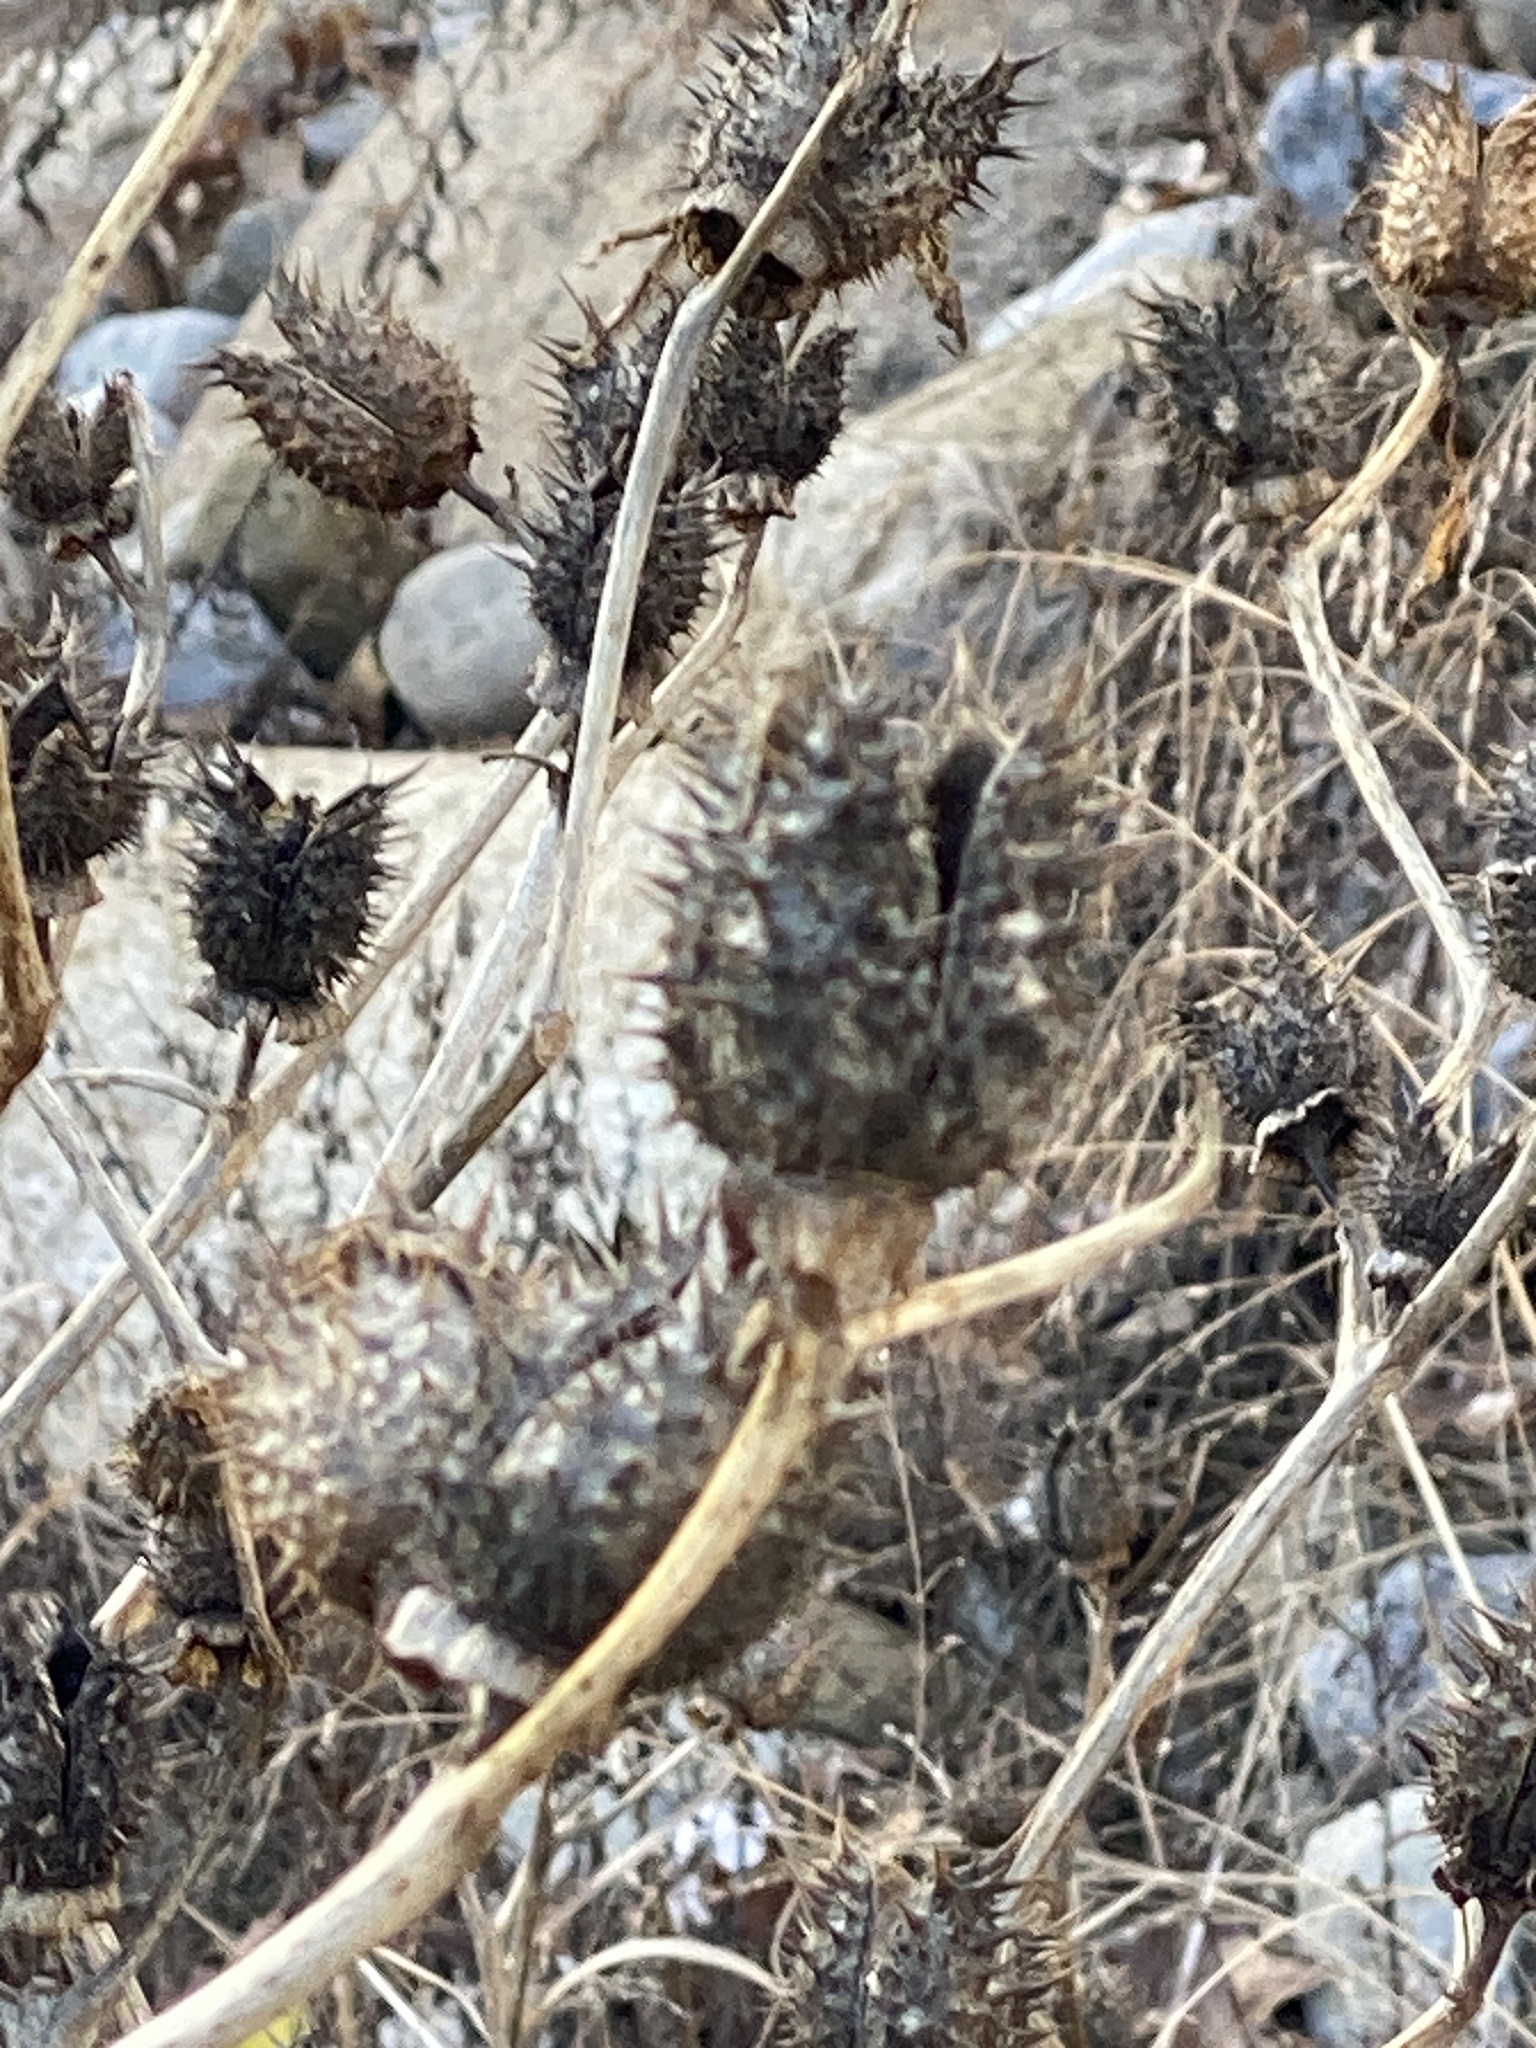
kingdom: Plantae
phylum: Tracheophyta
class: Magnoliopsida
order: Solanales
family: Solanaceae
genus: Datura
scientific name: Datura stramonium
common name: Thorn-apple
